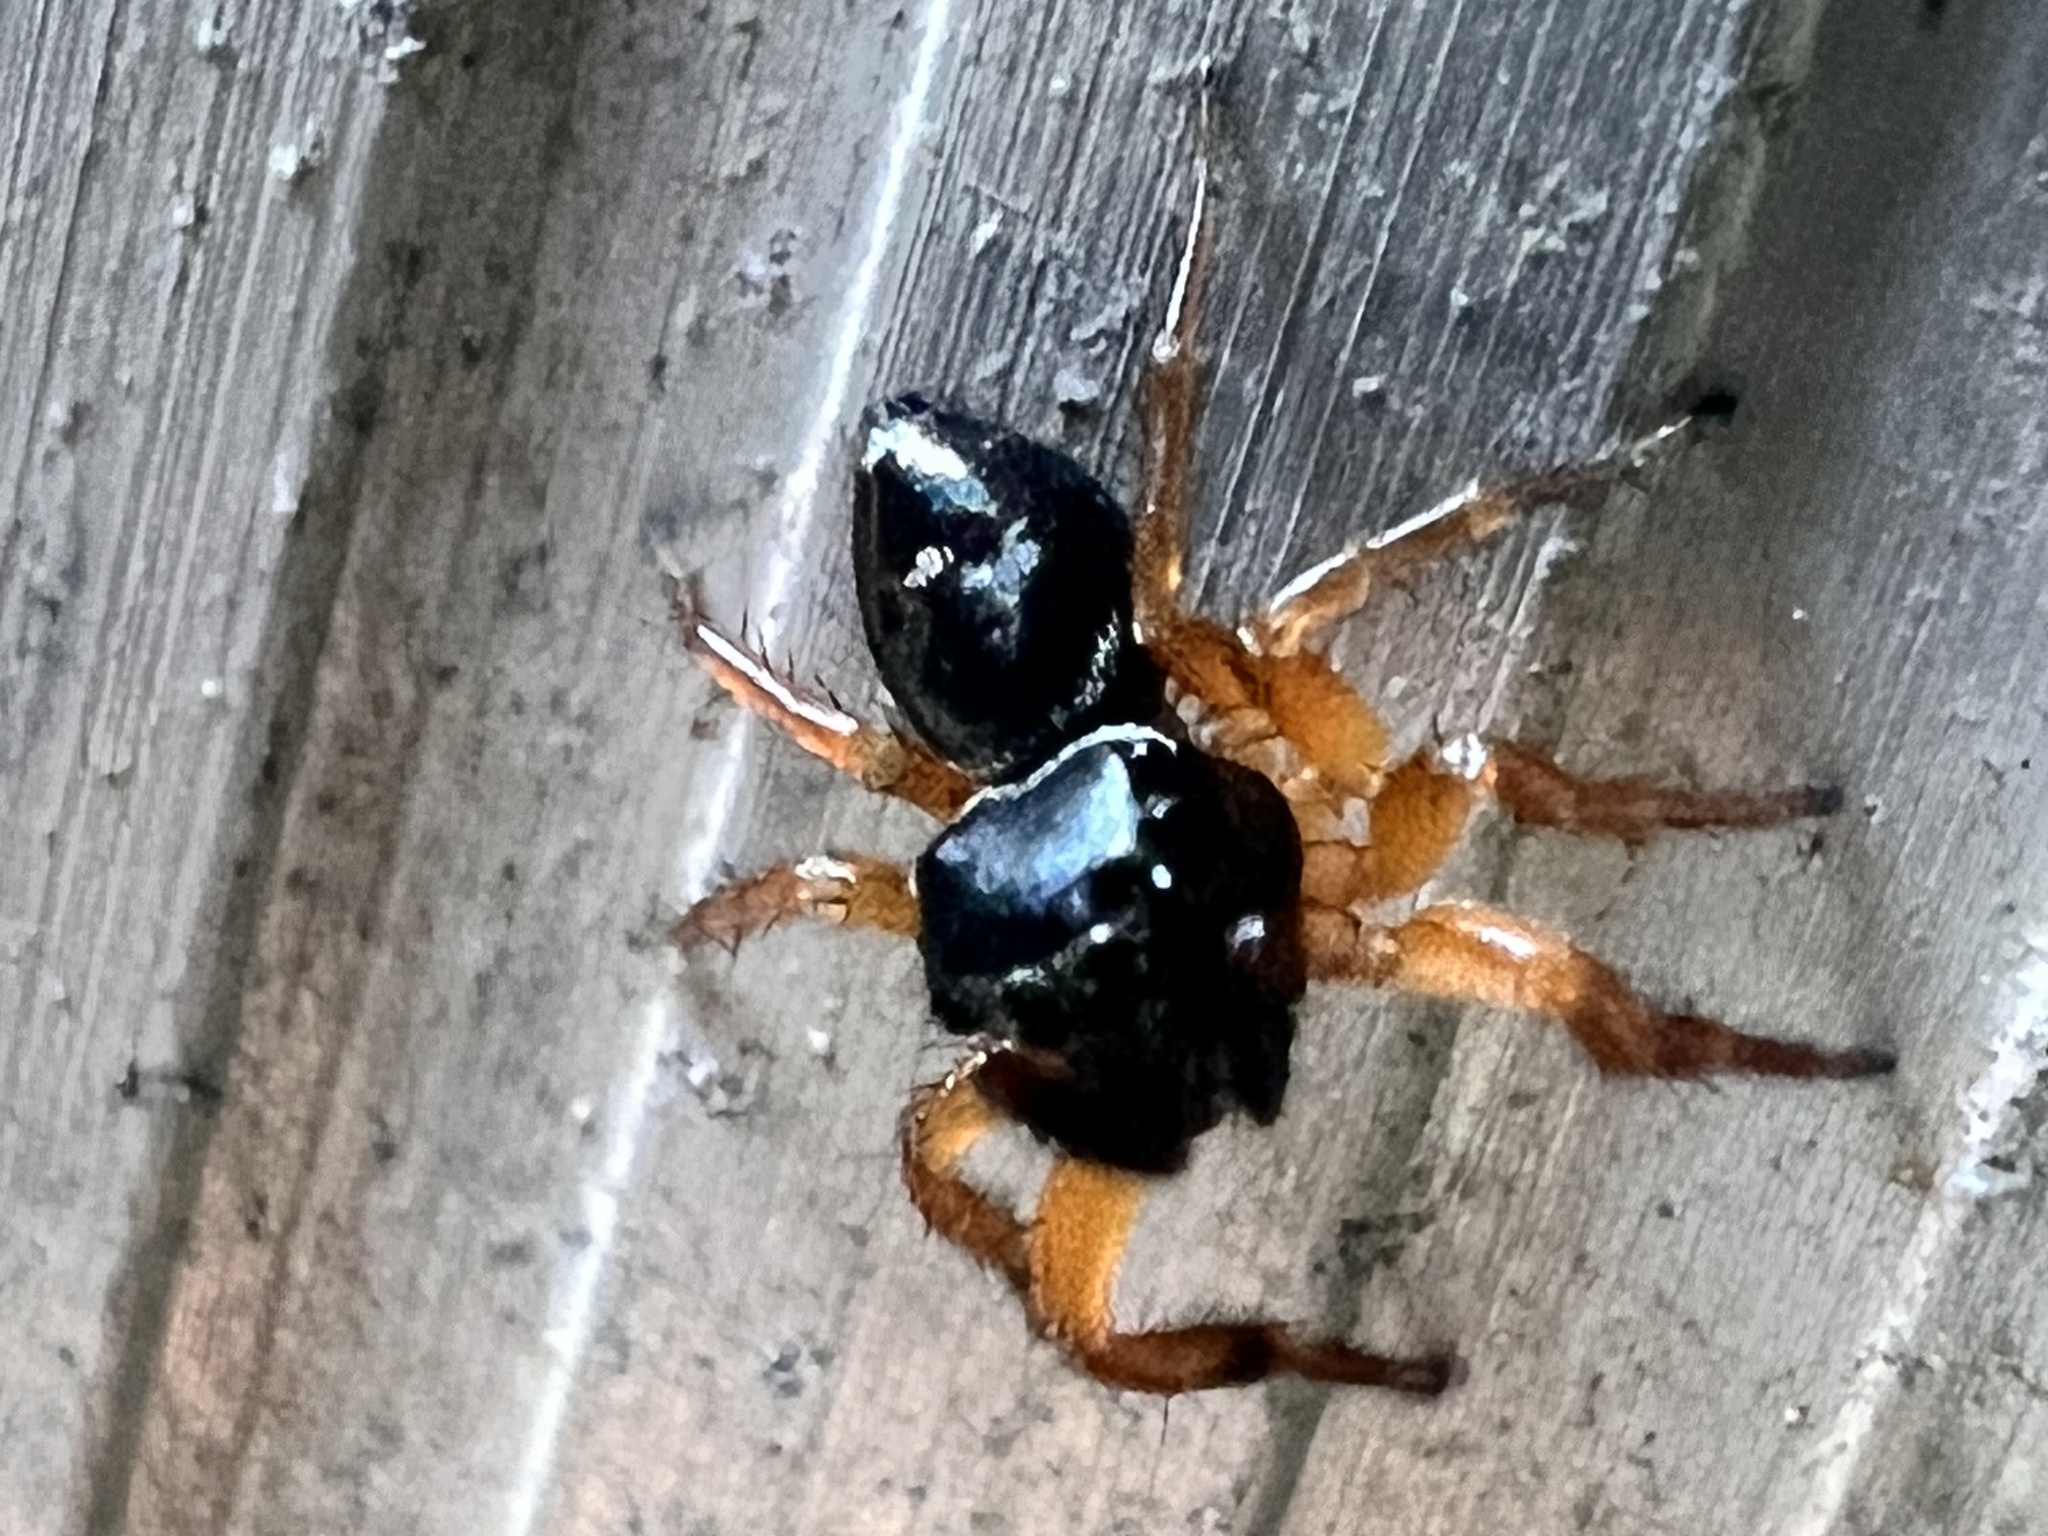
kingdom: Animalia
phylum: Arthropoda
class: Arachnida
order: Araneae
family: Salticidae
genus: Zenodorus
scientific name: Zenodorus orbiculatus
